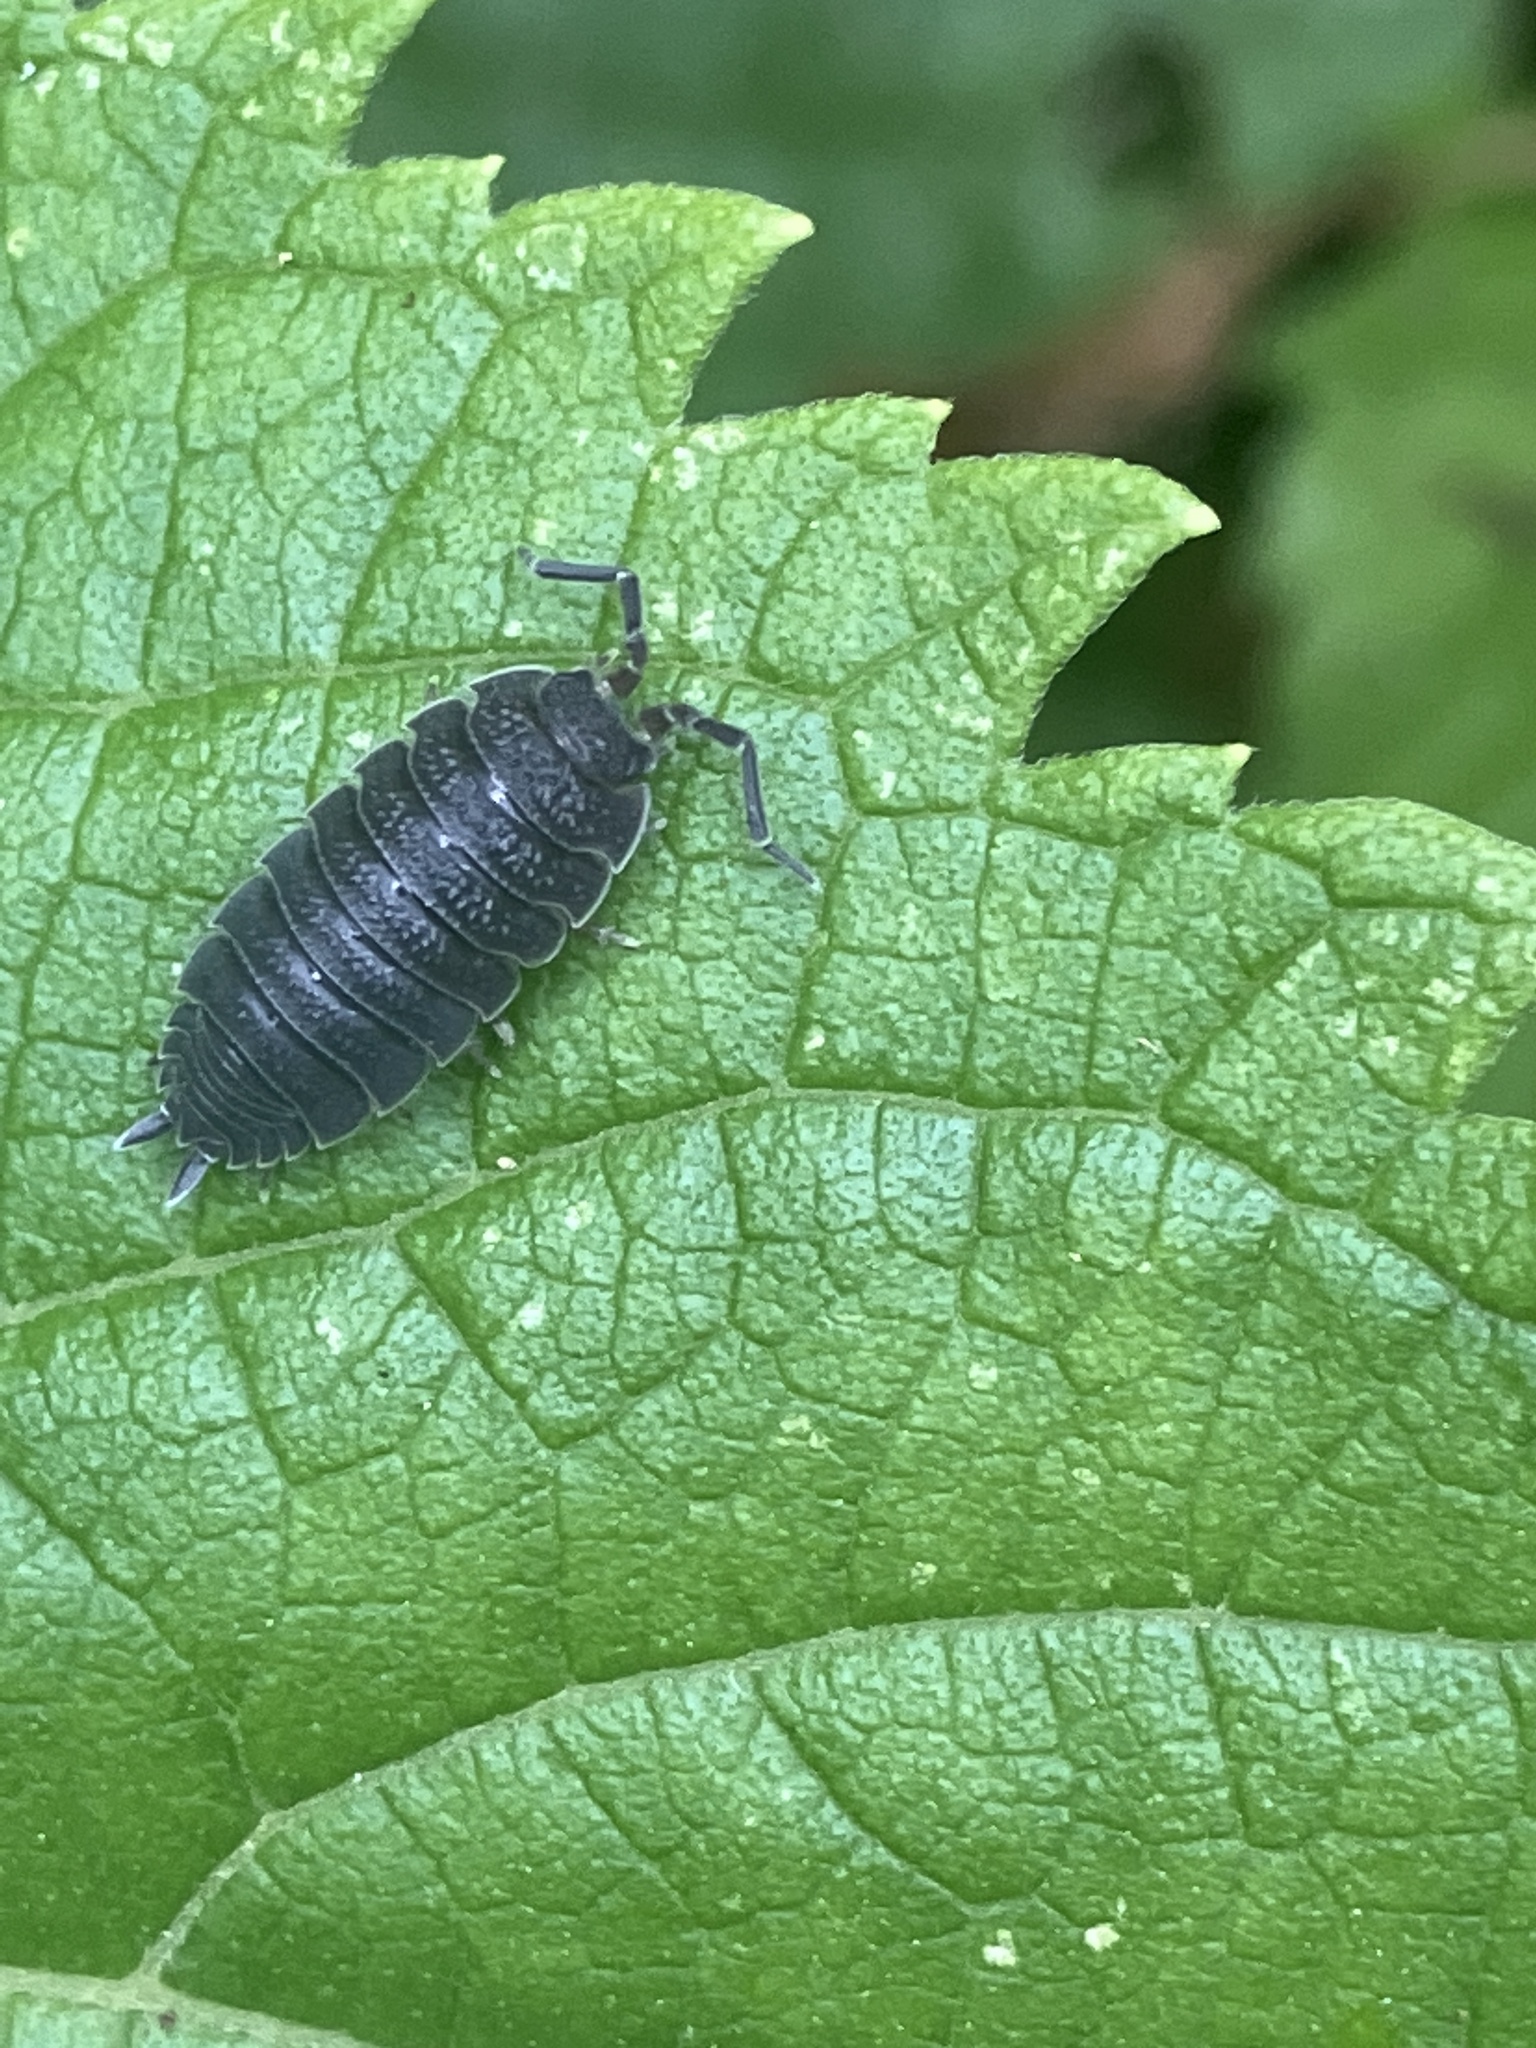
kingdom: Animalia
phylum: Arthropoda
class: Malacostraca
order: Isopoda
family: Porcellionidae
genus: Porcellio
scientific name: Porcellio scaber
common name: Common rough woodlouse
